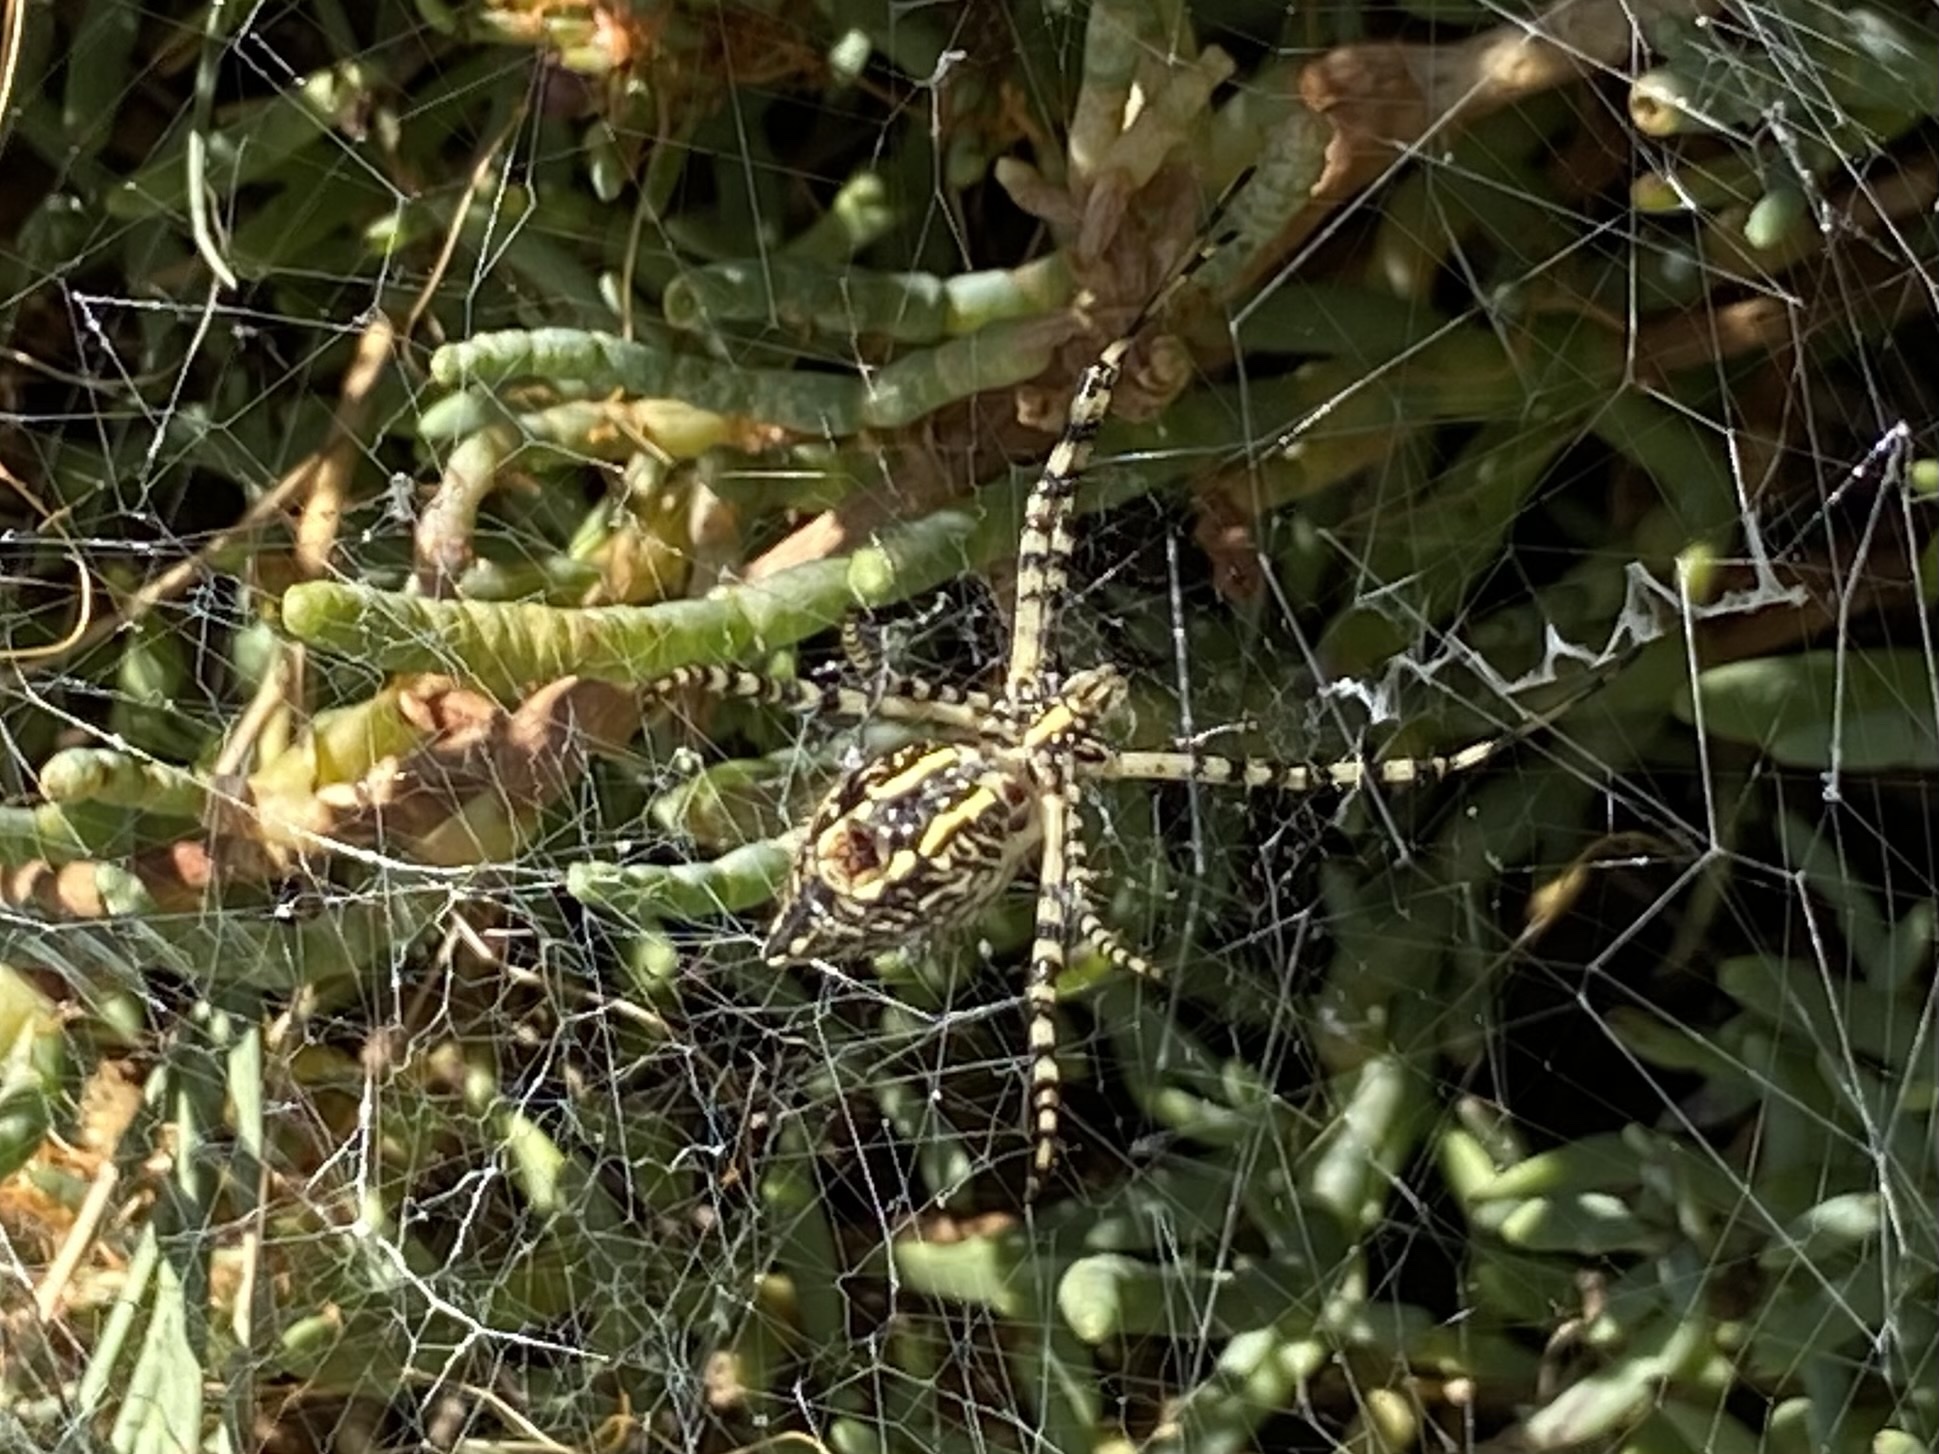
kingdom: Animalia
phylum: Arthropoda
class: Arachnida
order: Araneae
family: Araneidae
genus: Argiope
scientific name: Argiope aurantia
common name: Orb weavers
